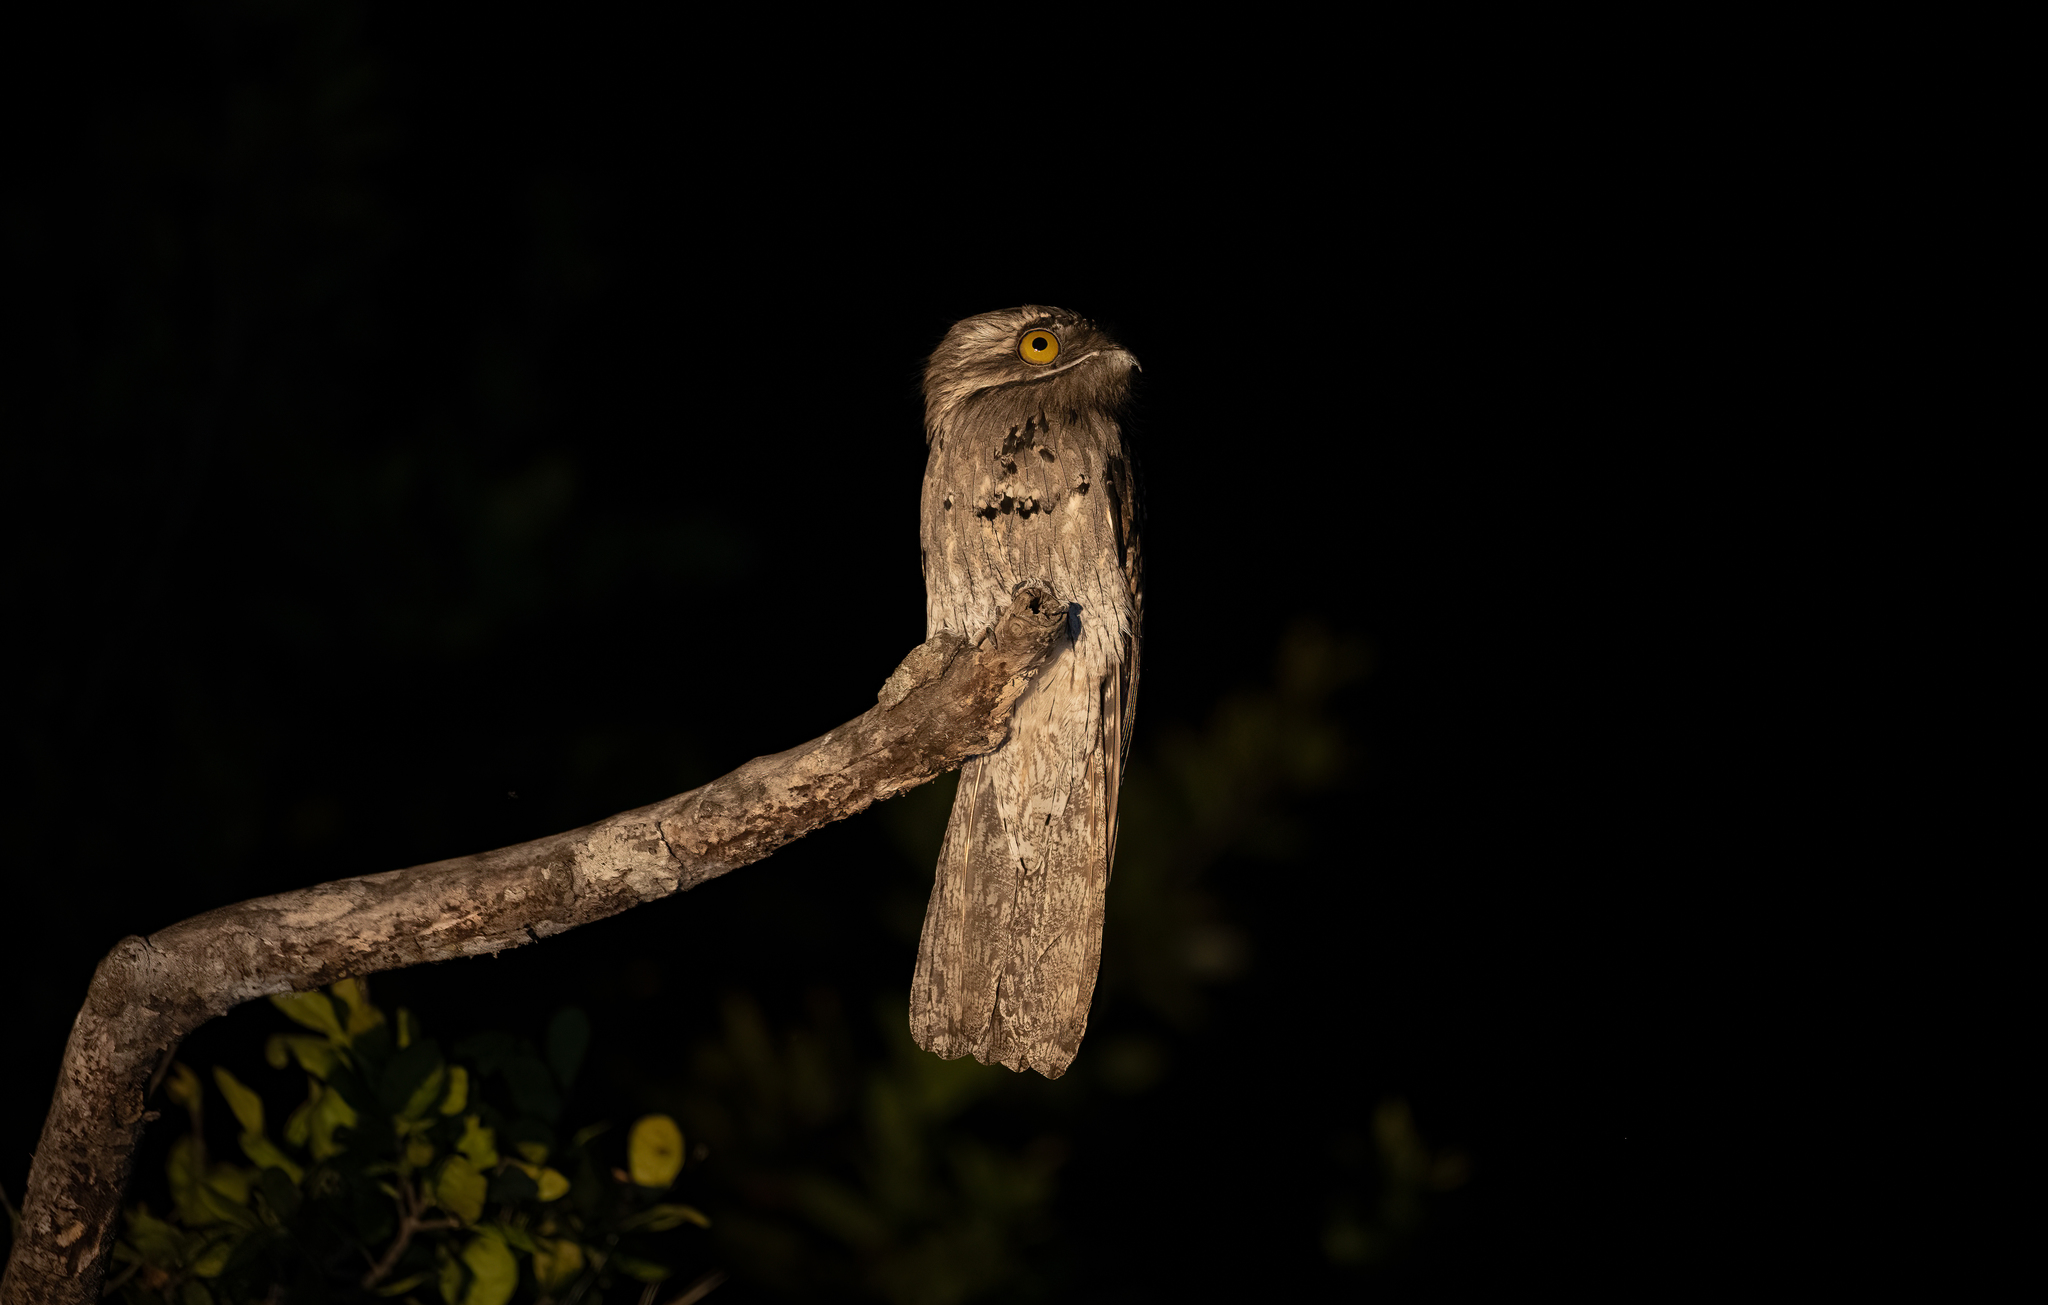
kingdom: Animalia
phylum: Chordata
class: Aves
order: Nyctibiiformes
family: Nyctibiidae
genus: Nyctibius
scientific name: Nyctibius jamaicensis
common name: Northern potoo
